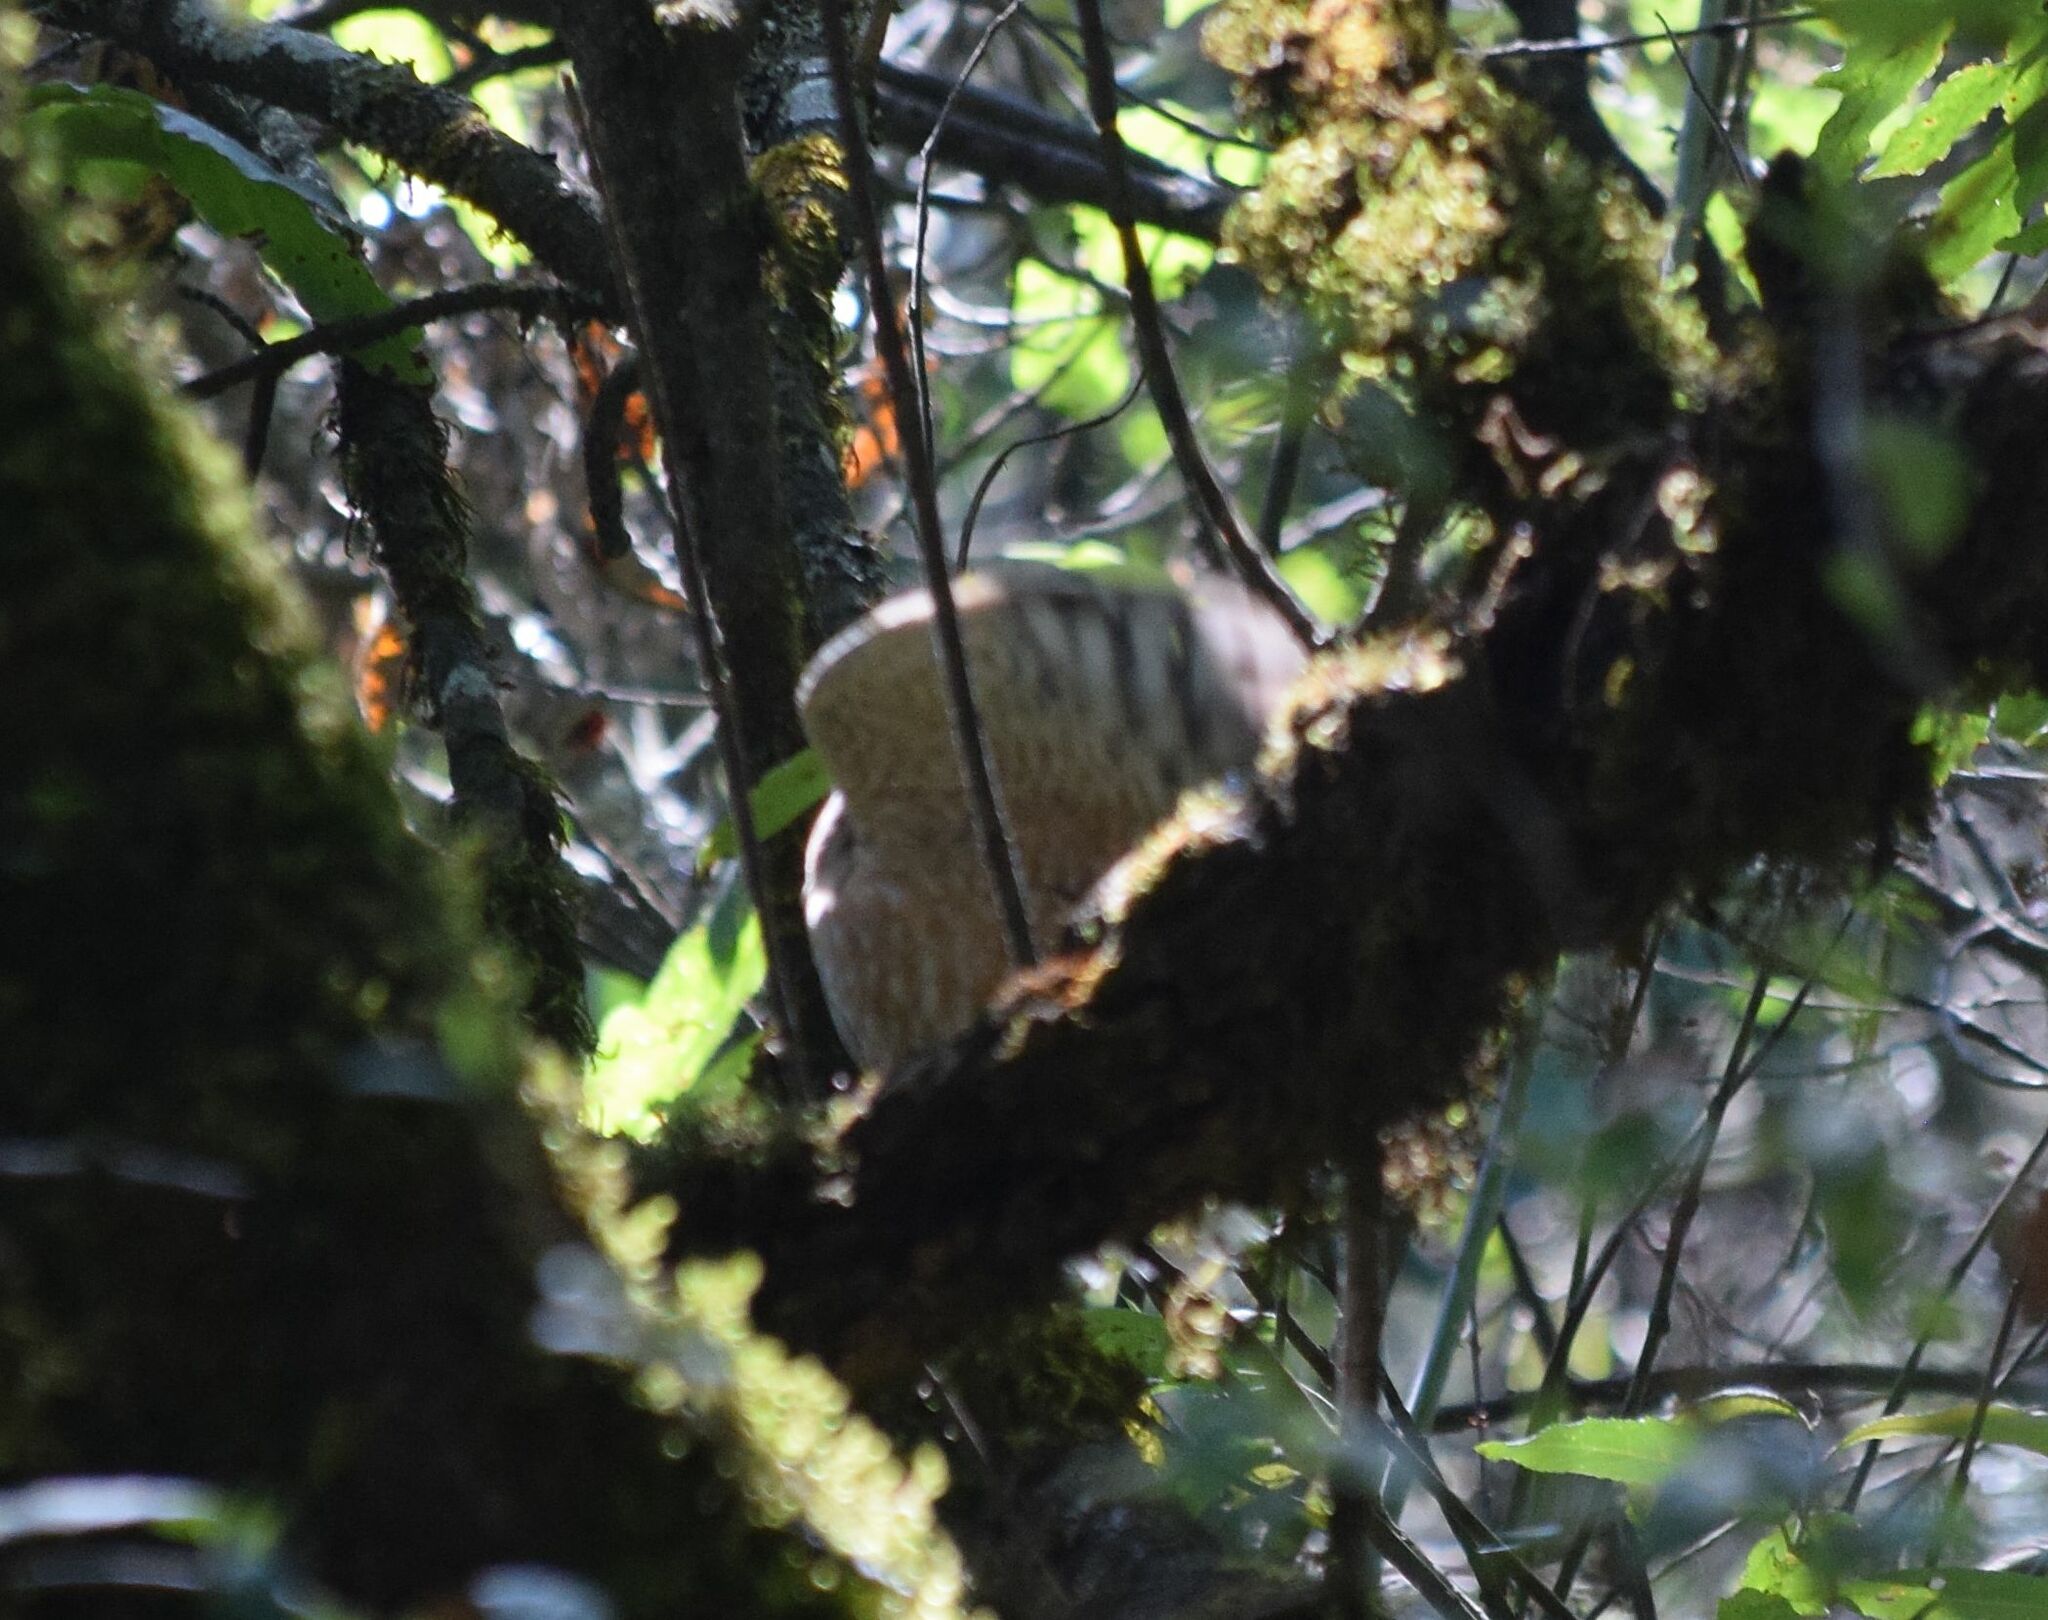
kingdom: Animalia
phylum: Chordata
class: Aves
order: Accipitriformes
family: Accipitridae
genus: Accipiter
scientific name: Accipiter cooperii
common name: Cooper's hawk
